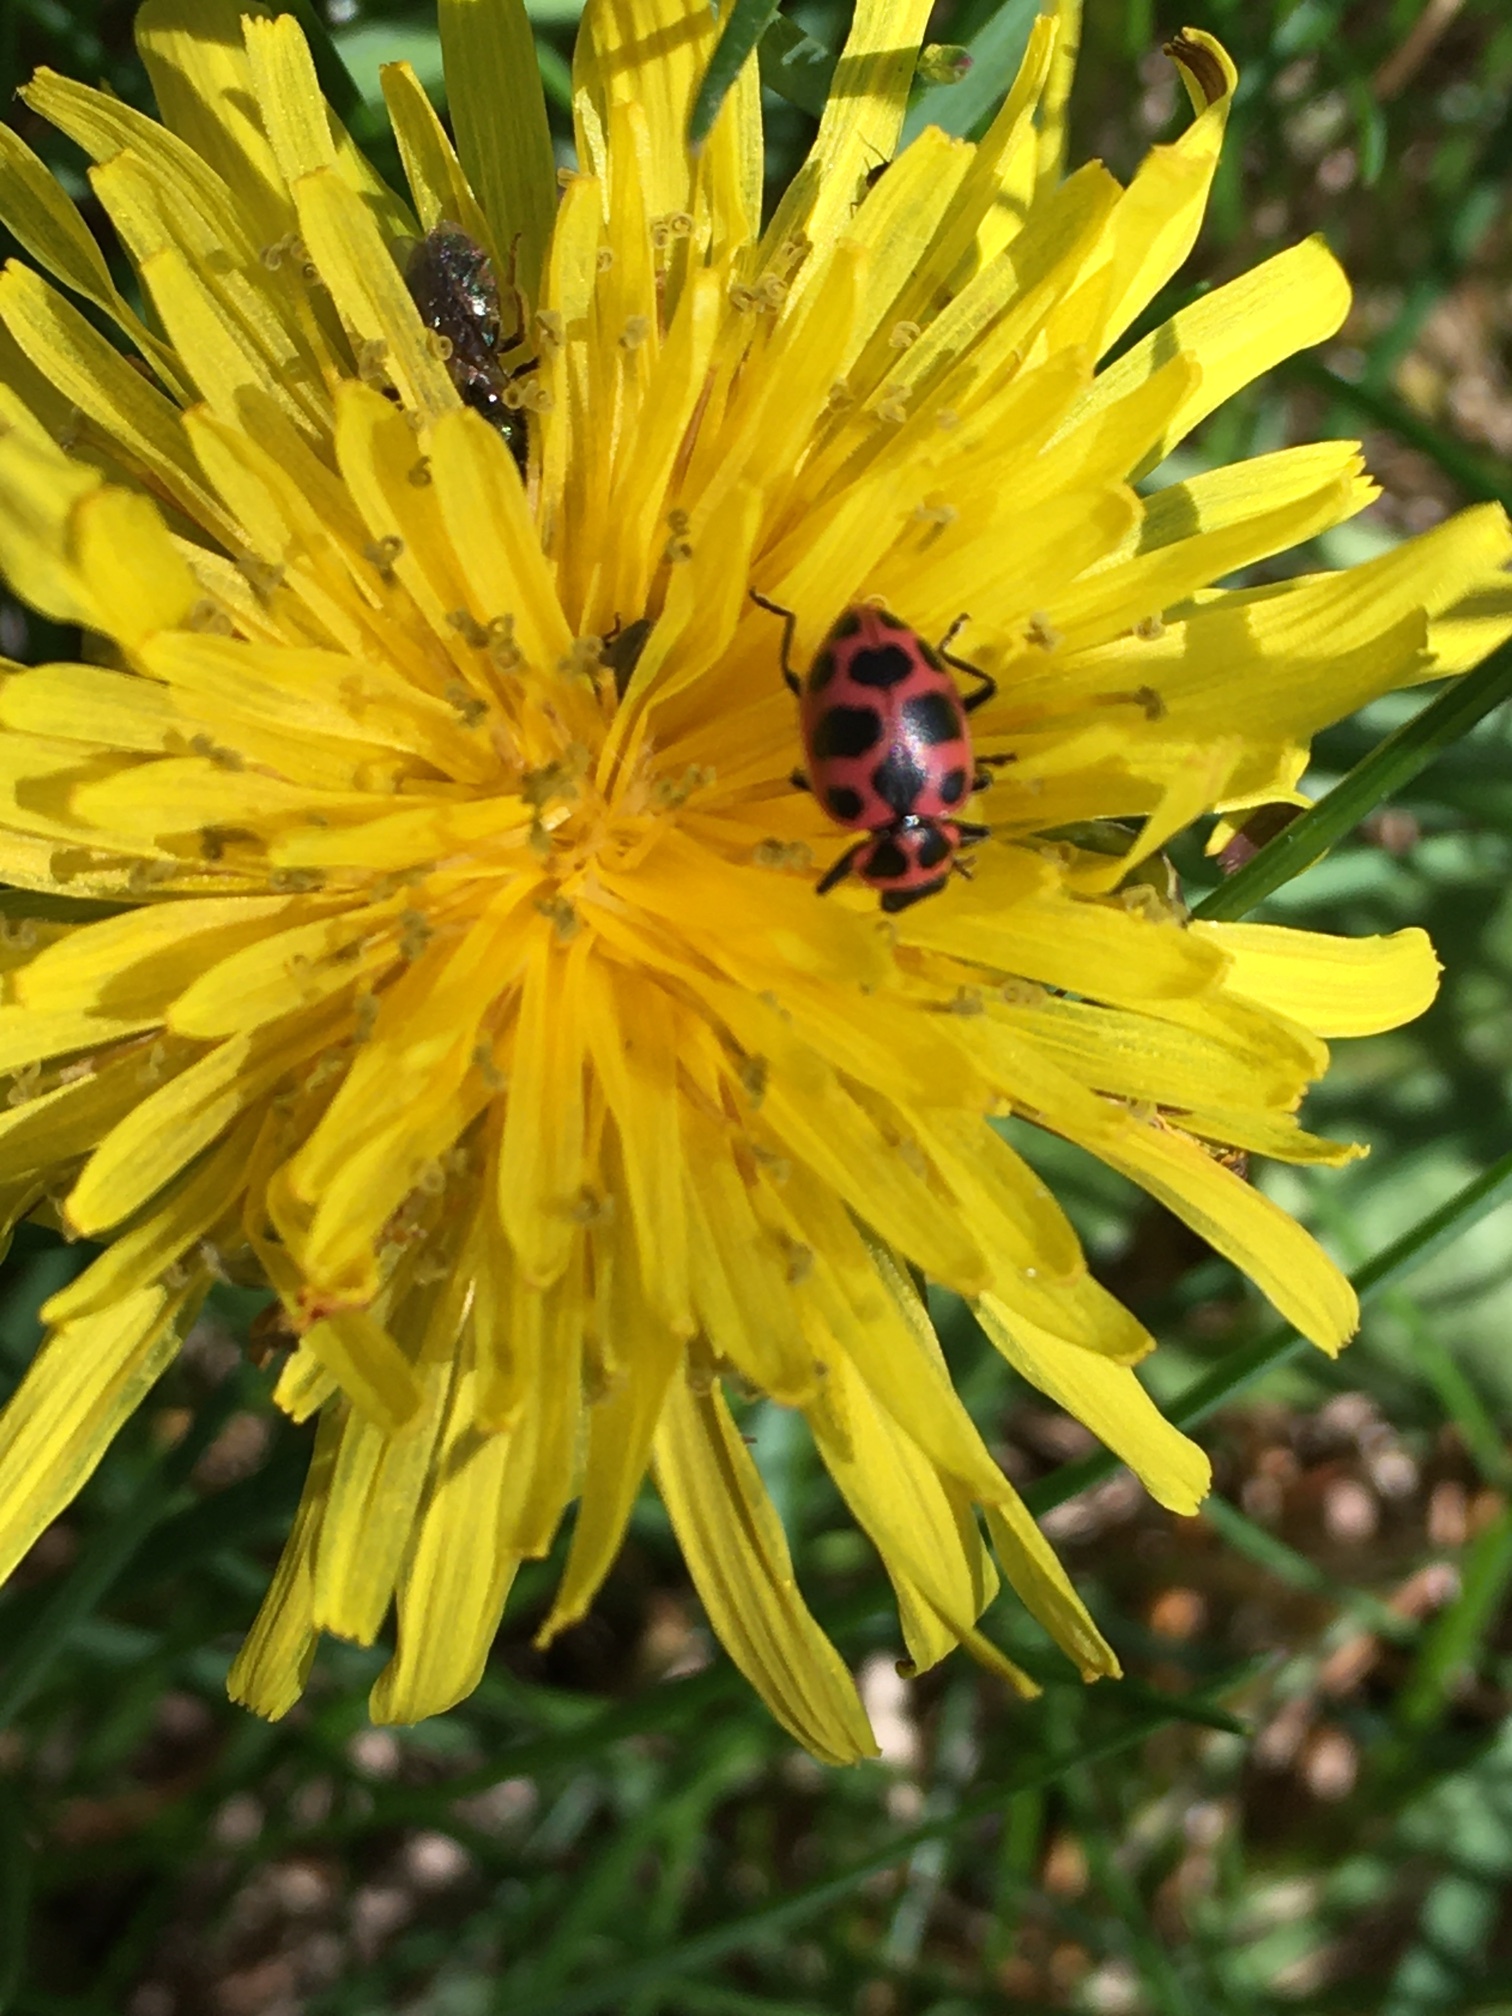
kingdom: Animalia
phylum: Arthropoda
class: Insecta
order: Coleoptera
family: Coccinellidae
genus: Coleomegilla
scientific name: Coleomegilla maculata
